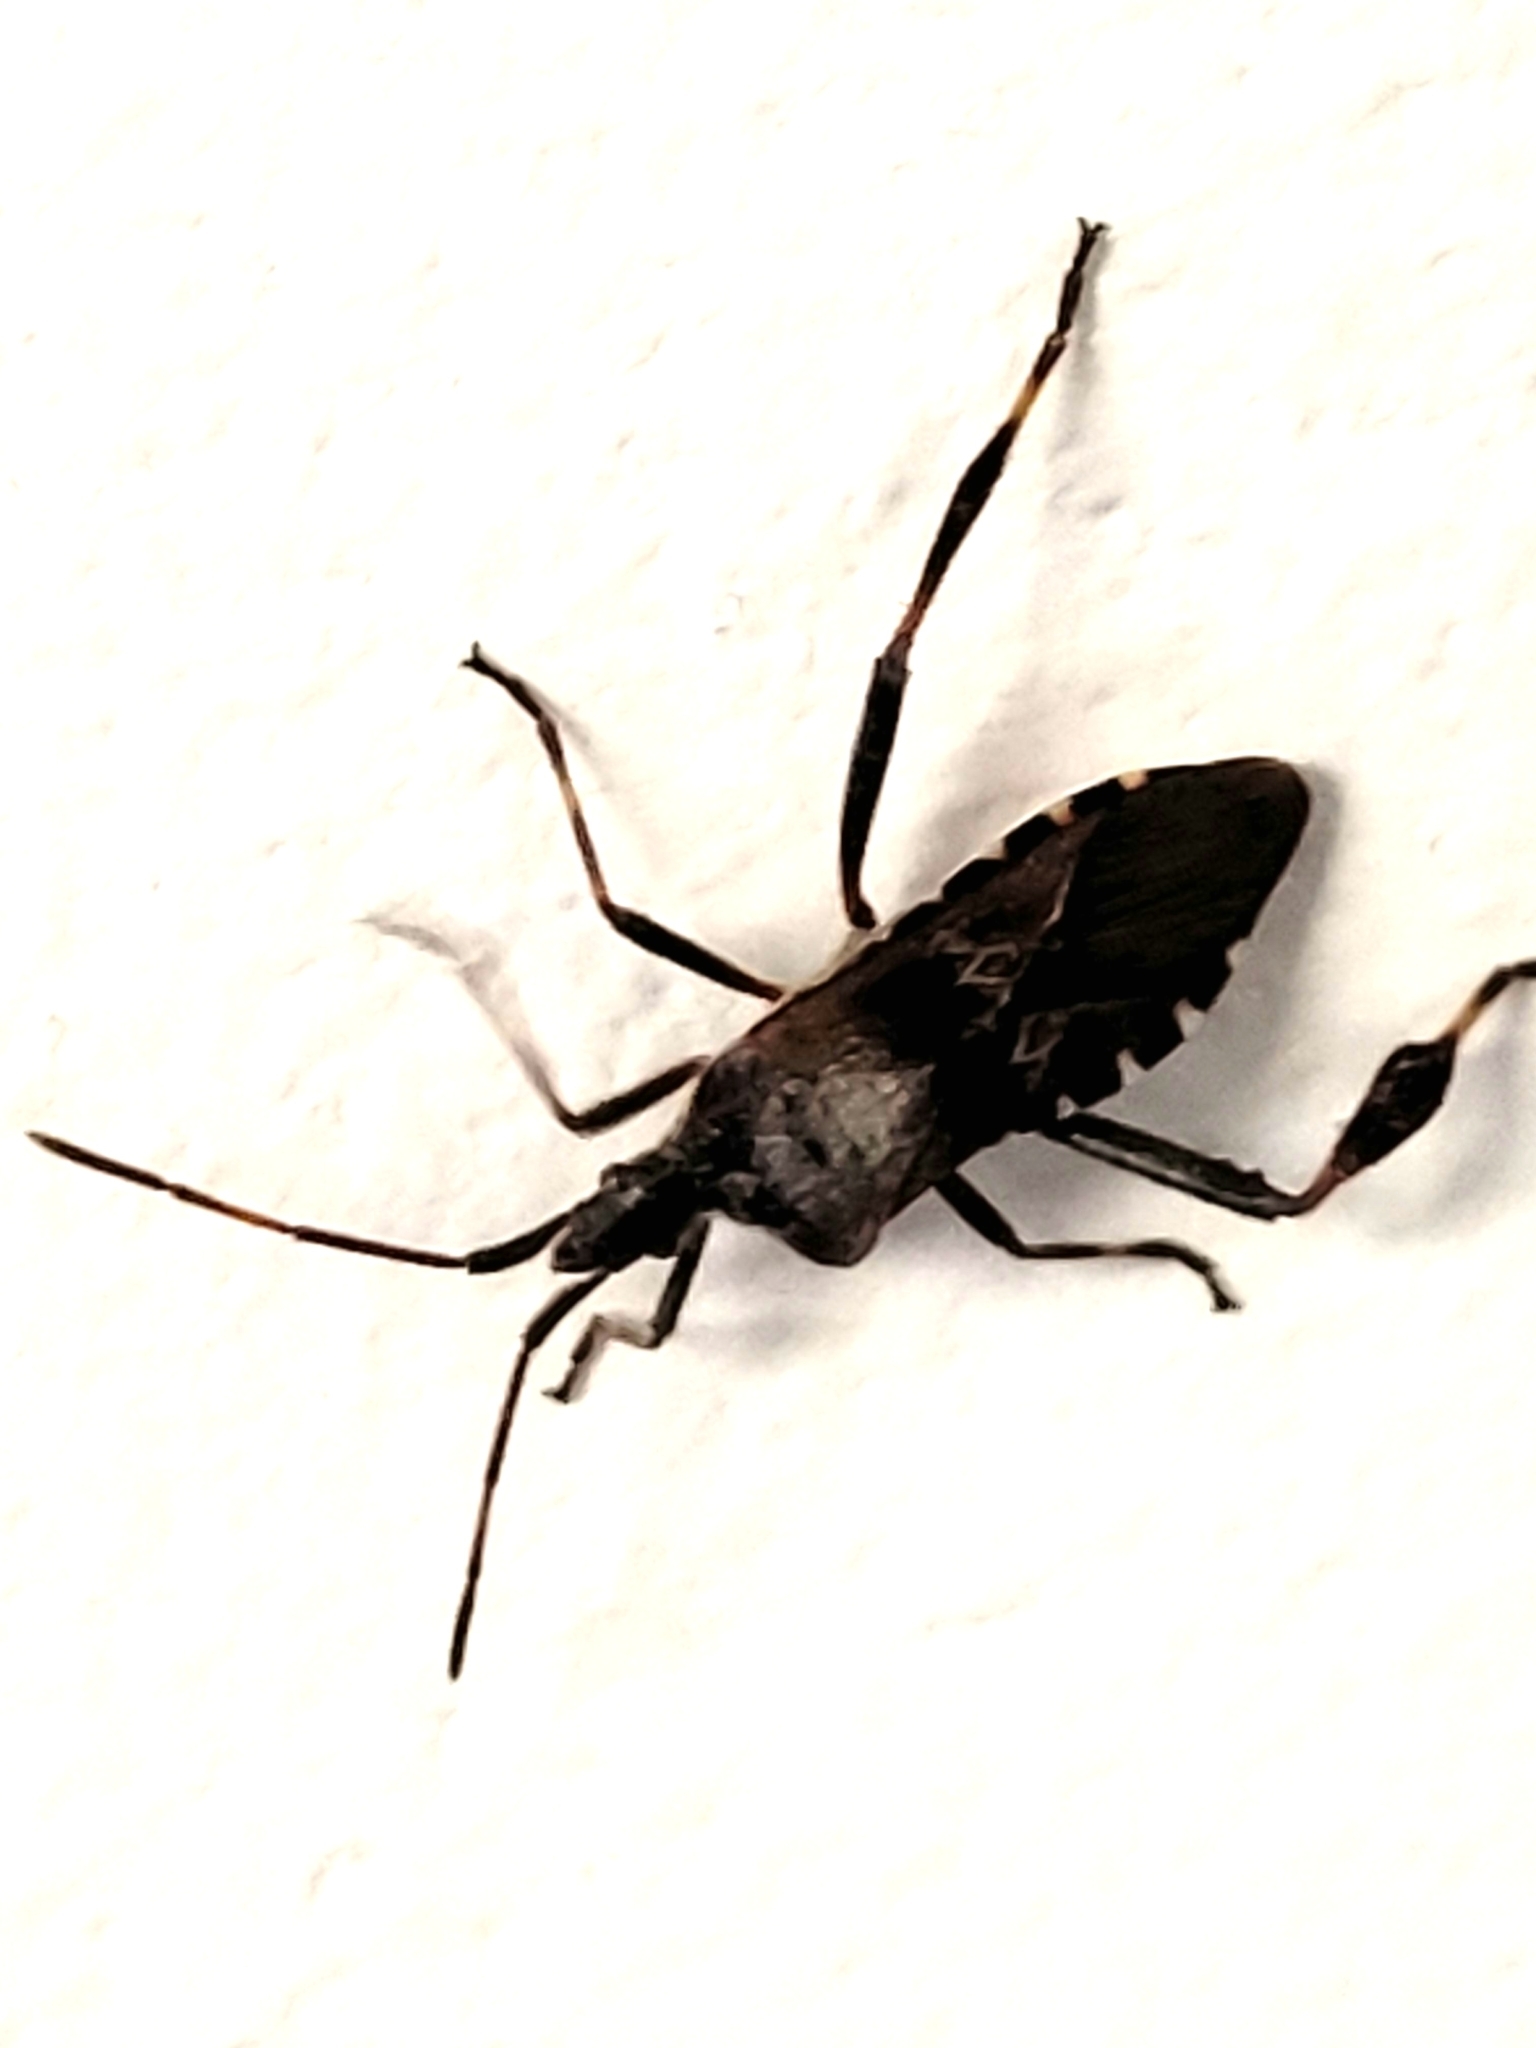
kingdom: Animalia
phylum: Arthropoda
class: Insecta
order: Hemiptera
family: Coreidae
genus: Leptoglossus
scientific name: Leptoglossus occidentalis
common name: Western conifer-seed bug
